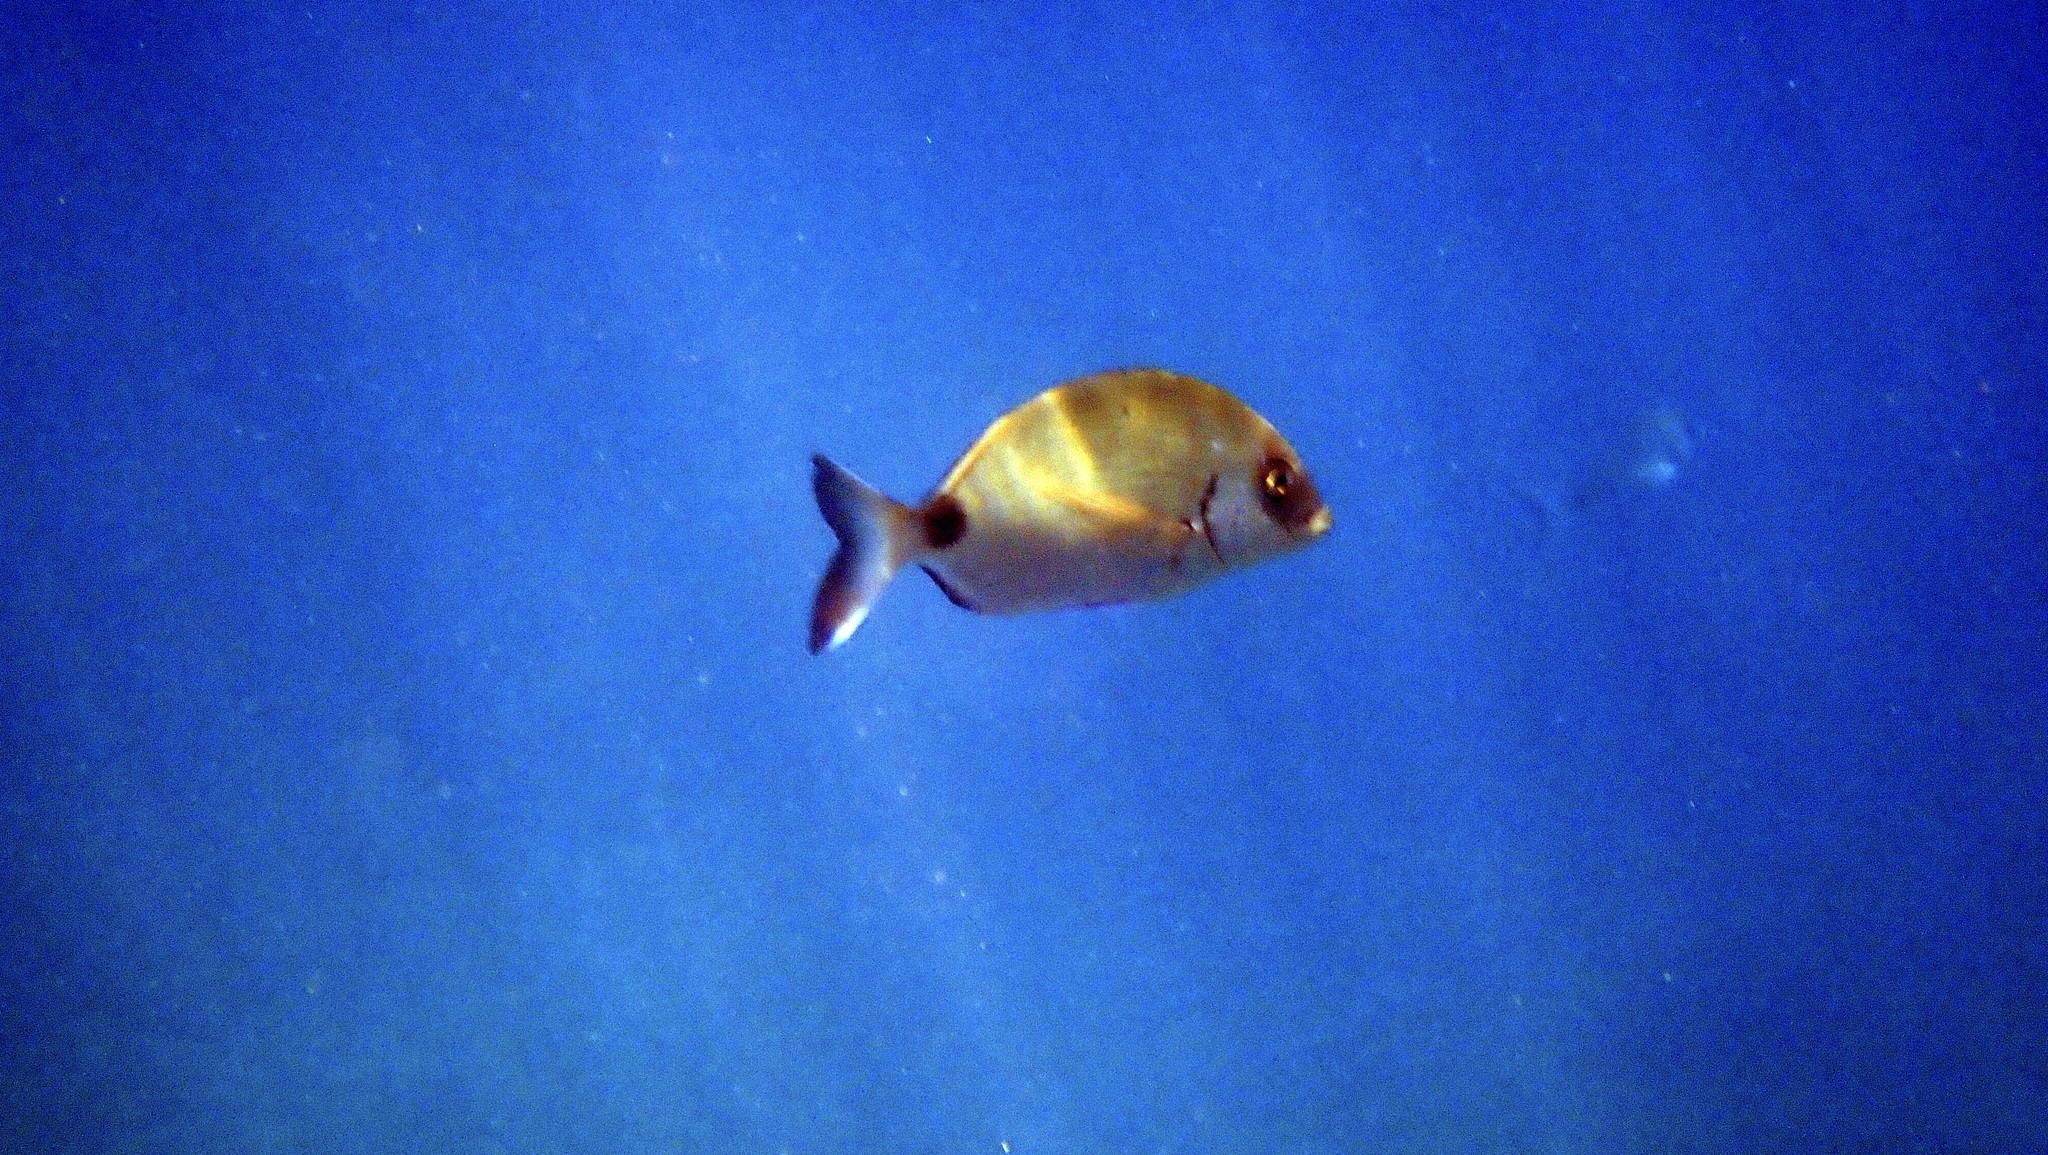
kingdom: Animalia
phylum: Chordata
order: Perciformes
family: Sparidae
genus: Diplodus
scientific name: Diplodus sargus
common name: White seabream
